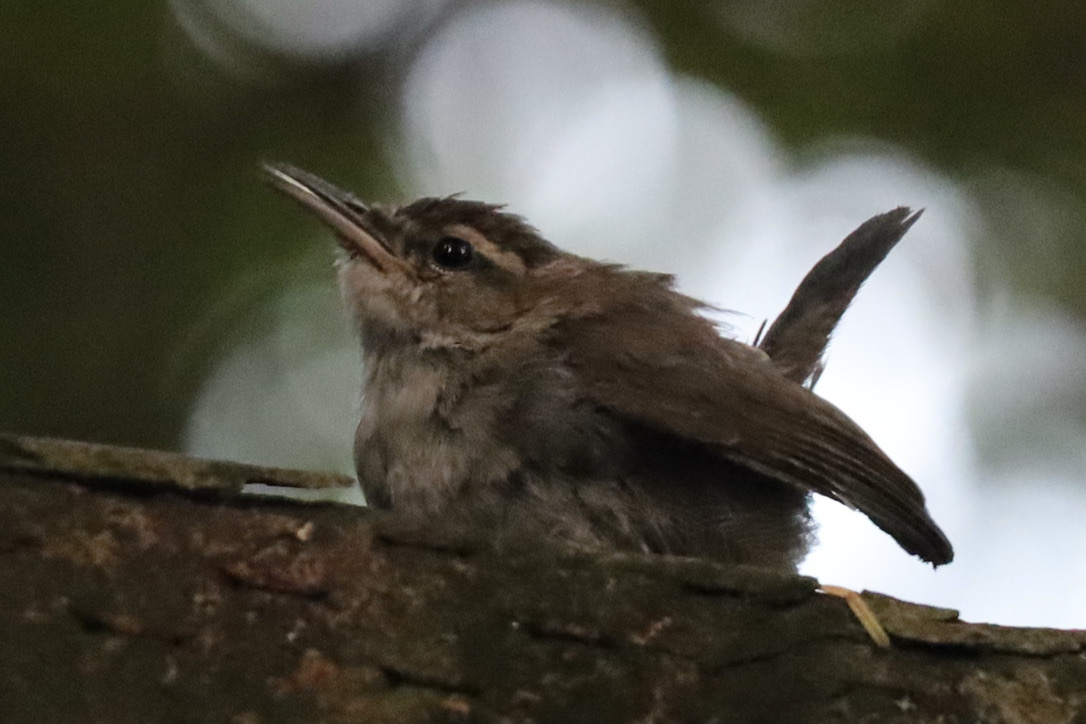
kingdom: Animalia
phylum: Chordata
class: Aves
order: Passeriformes
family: Troglodytidae
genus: Thryomanes
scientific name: Thryomanes bewickii
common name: Bewick's wren
